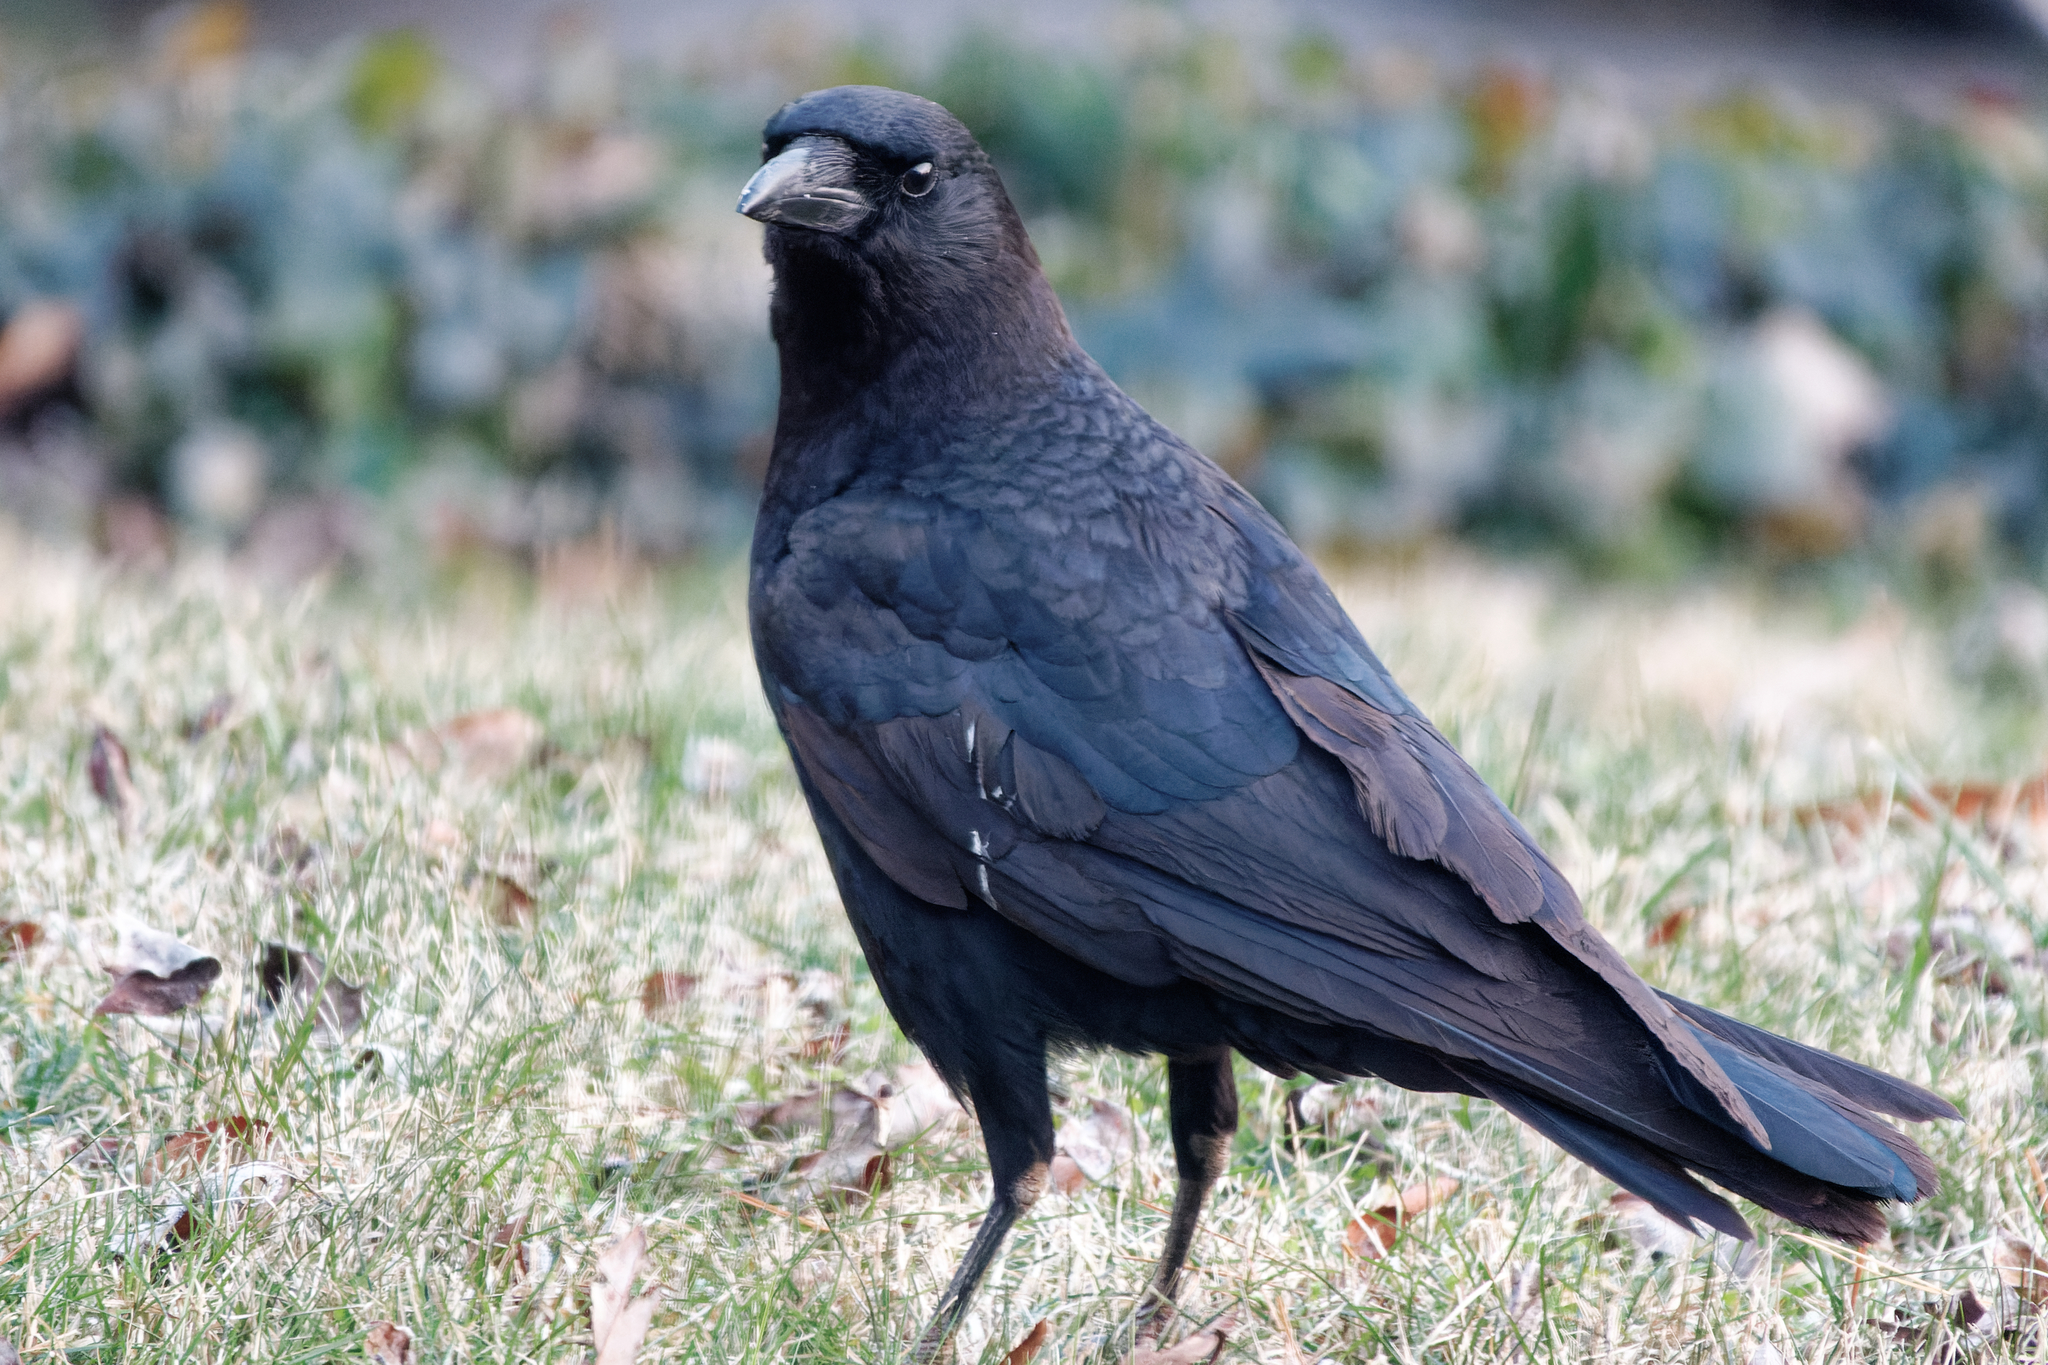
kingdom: Animalia
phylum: Chordata
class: Aves
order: Passeriformes
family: Corvidae
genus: Corvus
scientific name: Corvus brachyrhynchos
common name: American crow
